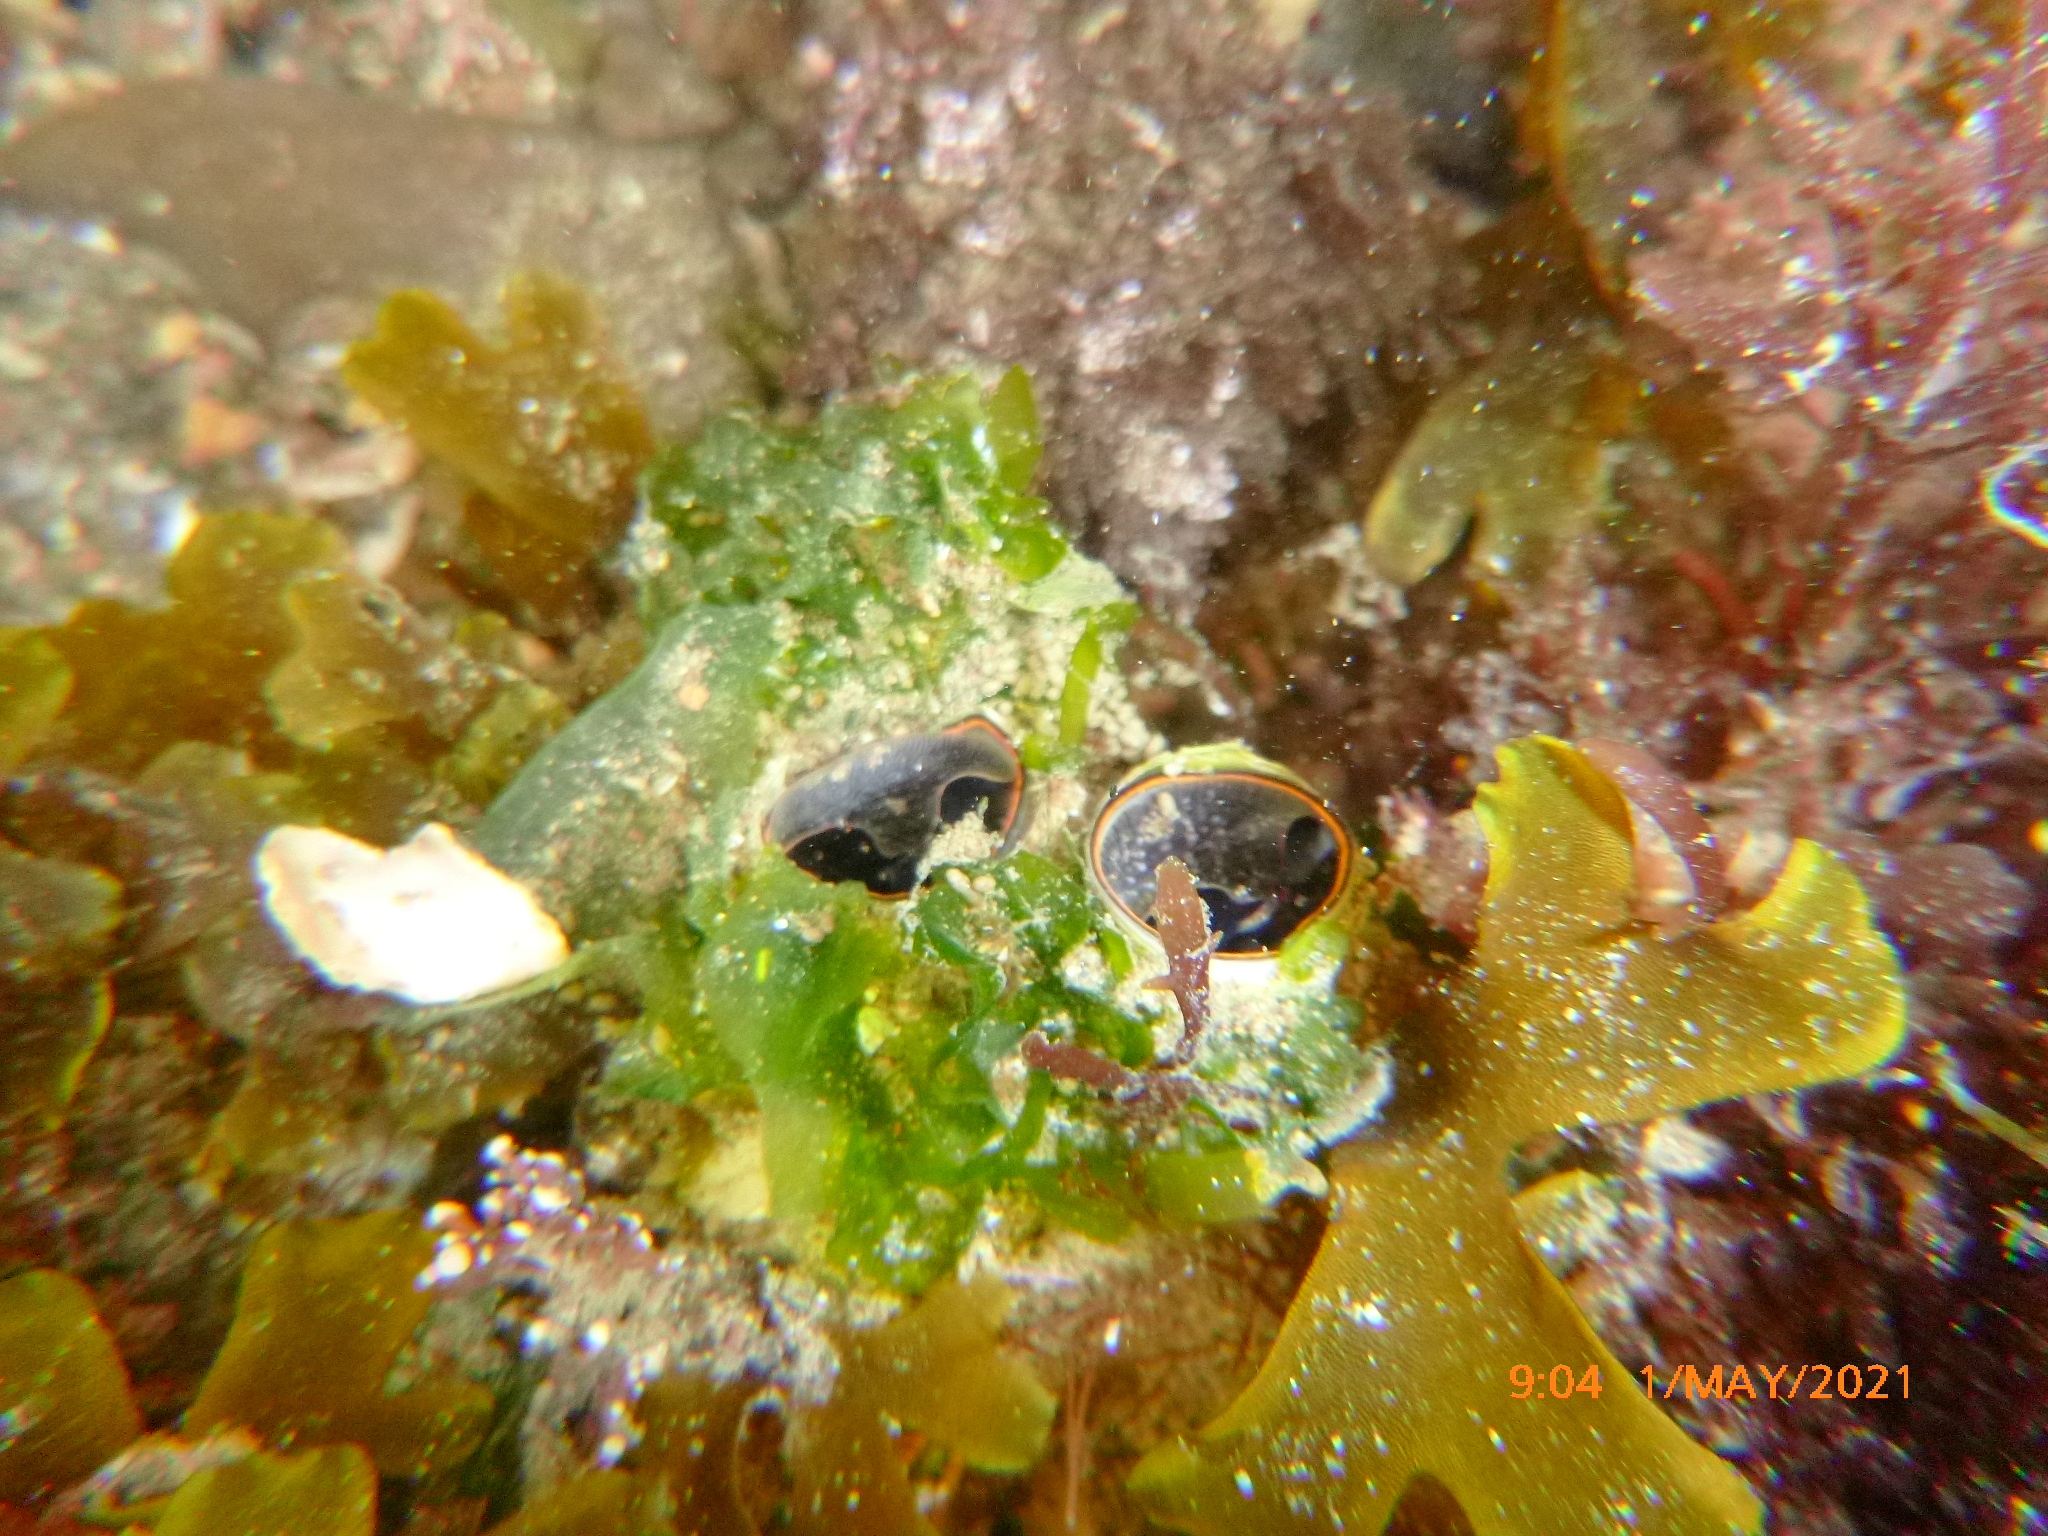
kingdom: Animalia
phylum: Mollusca
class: Gastropoda
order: Littorinimorpha
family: Vermetidae
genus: Thylacodes
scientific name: Thylacodes squamigerus
